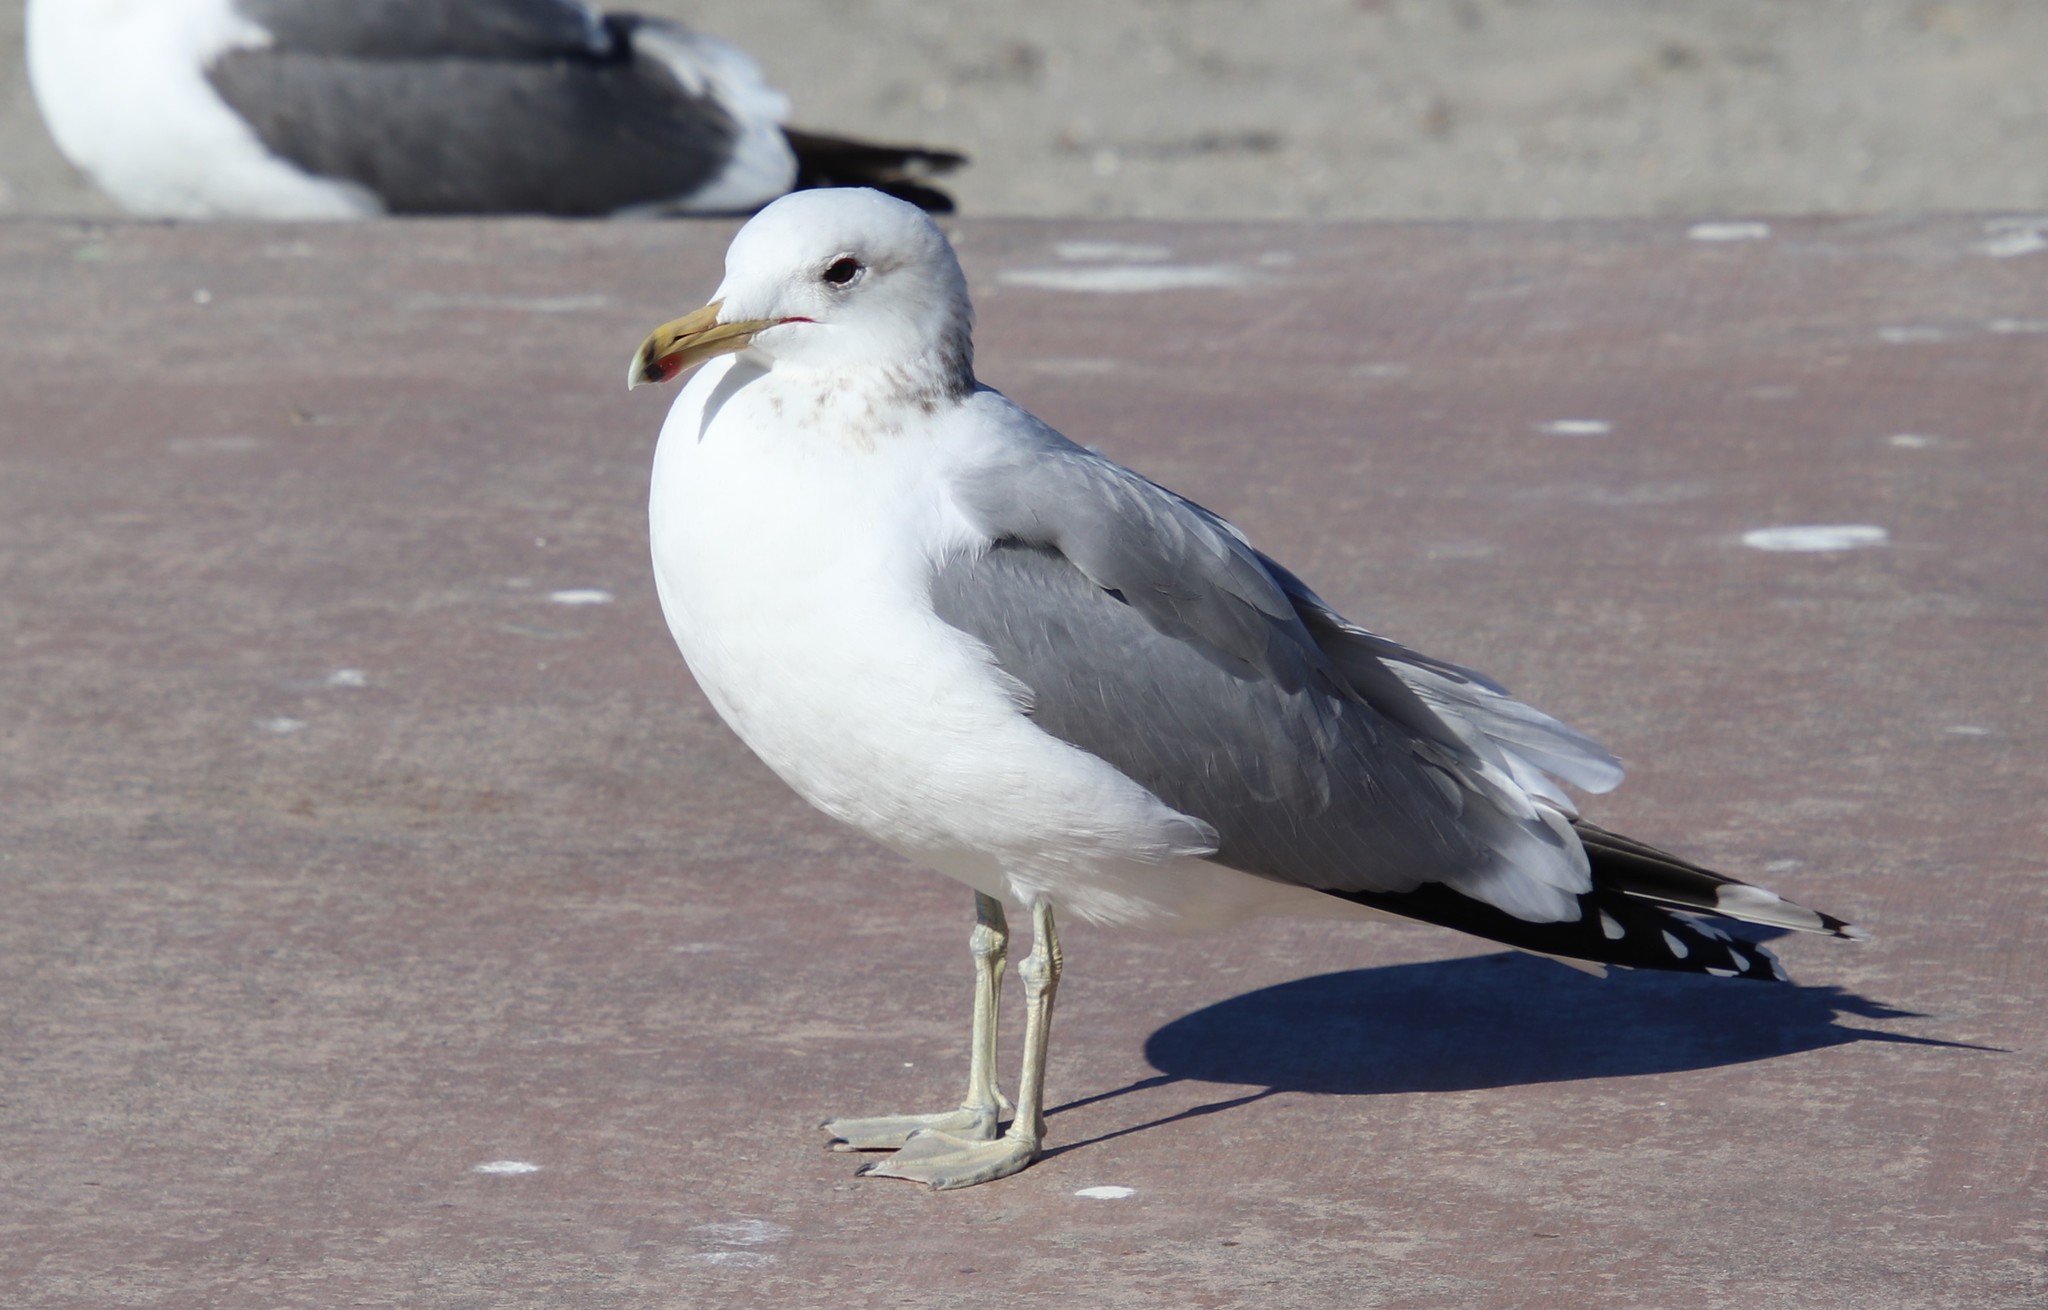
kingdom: Animalia
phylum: Chordata
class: Aves
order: Charadriiformes
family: Laridae
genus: Larus
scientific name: Larus californicus
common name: California gull
